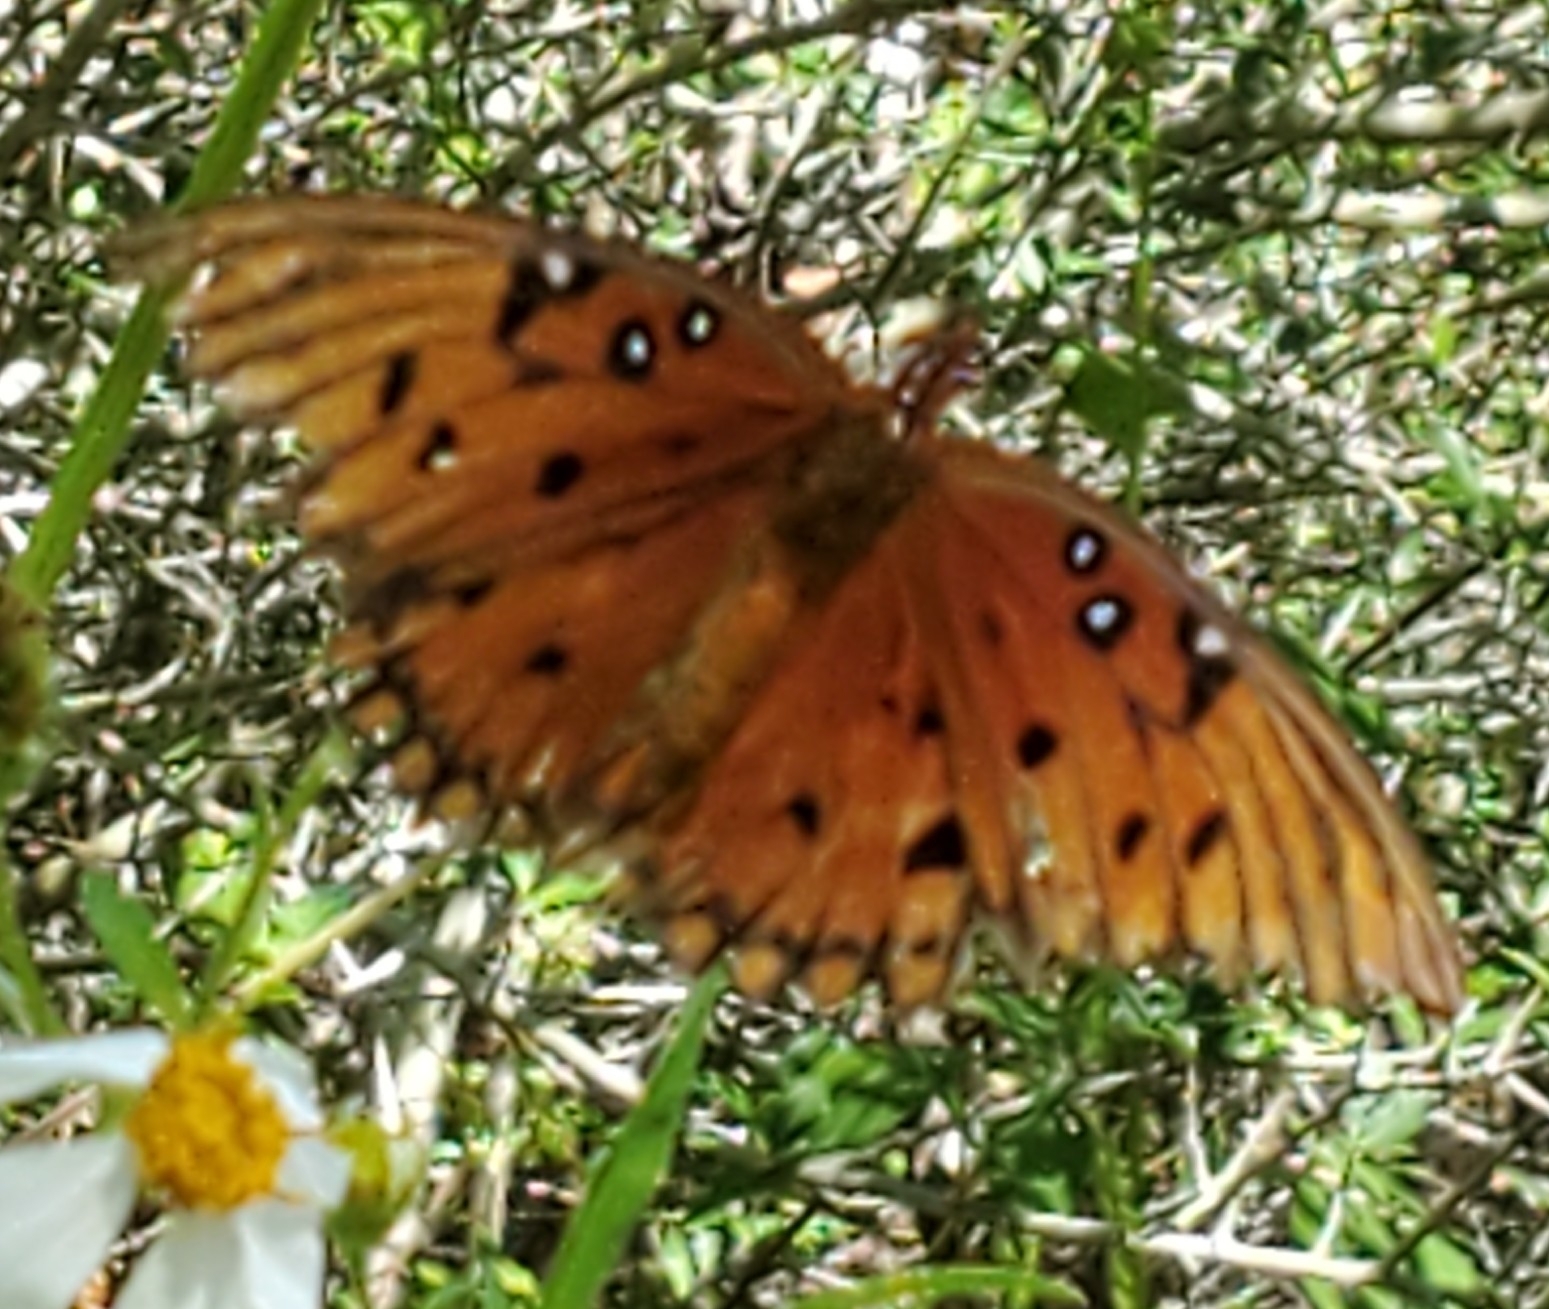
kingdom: Animalia
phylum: Arthropoda
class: Insecta
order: Lepidoptera
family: Nymphalidae
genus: Dione
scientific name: Dione vanillae
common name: Gulf fritillary
